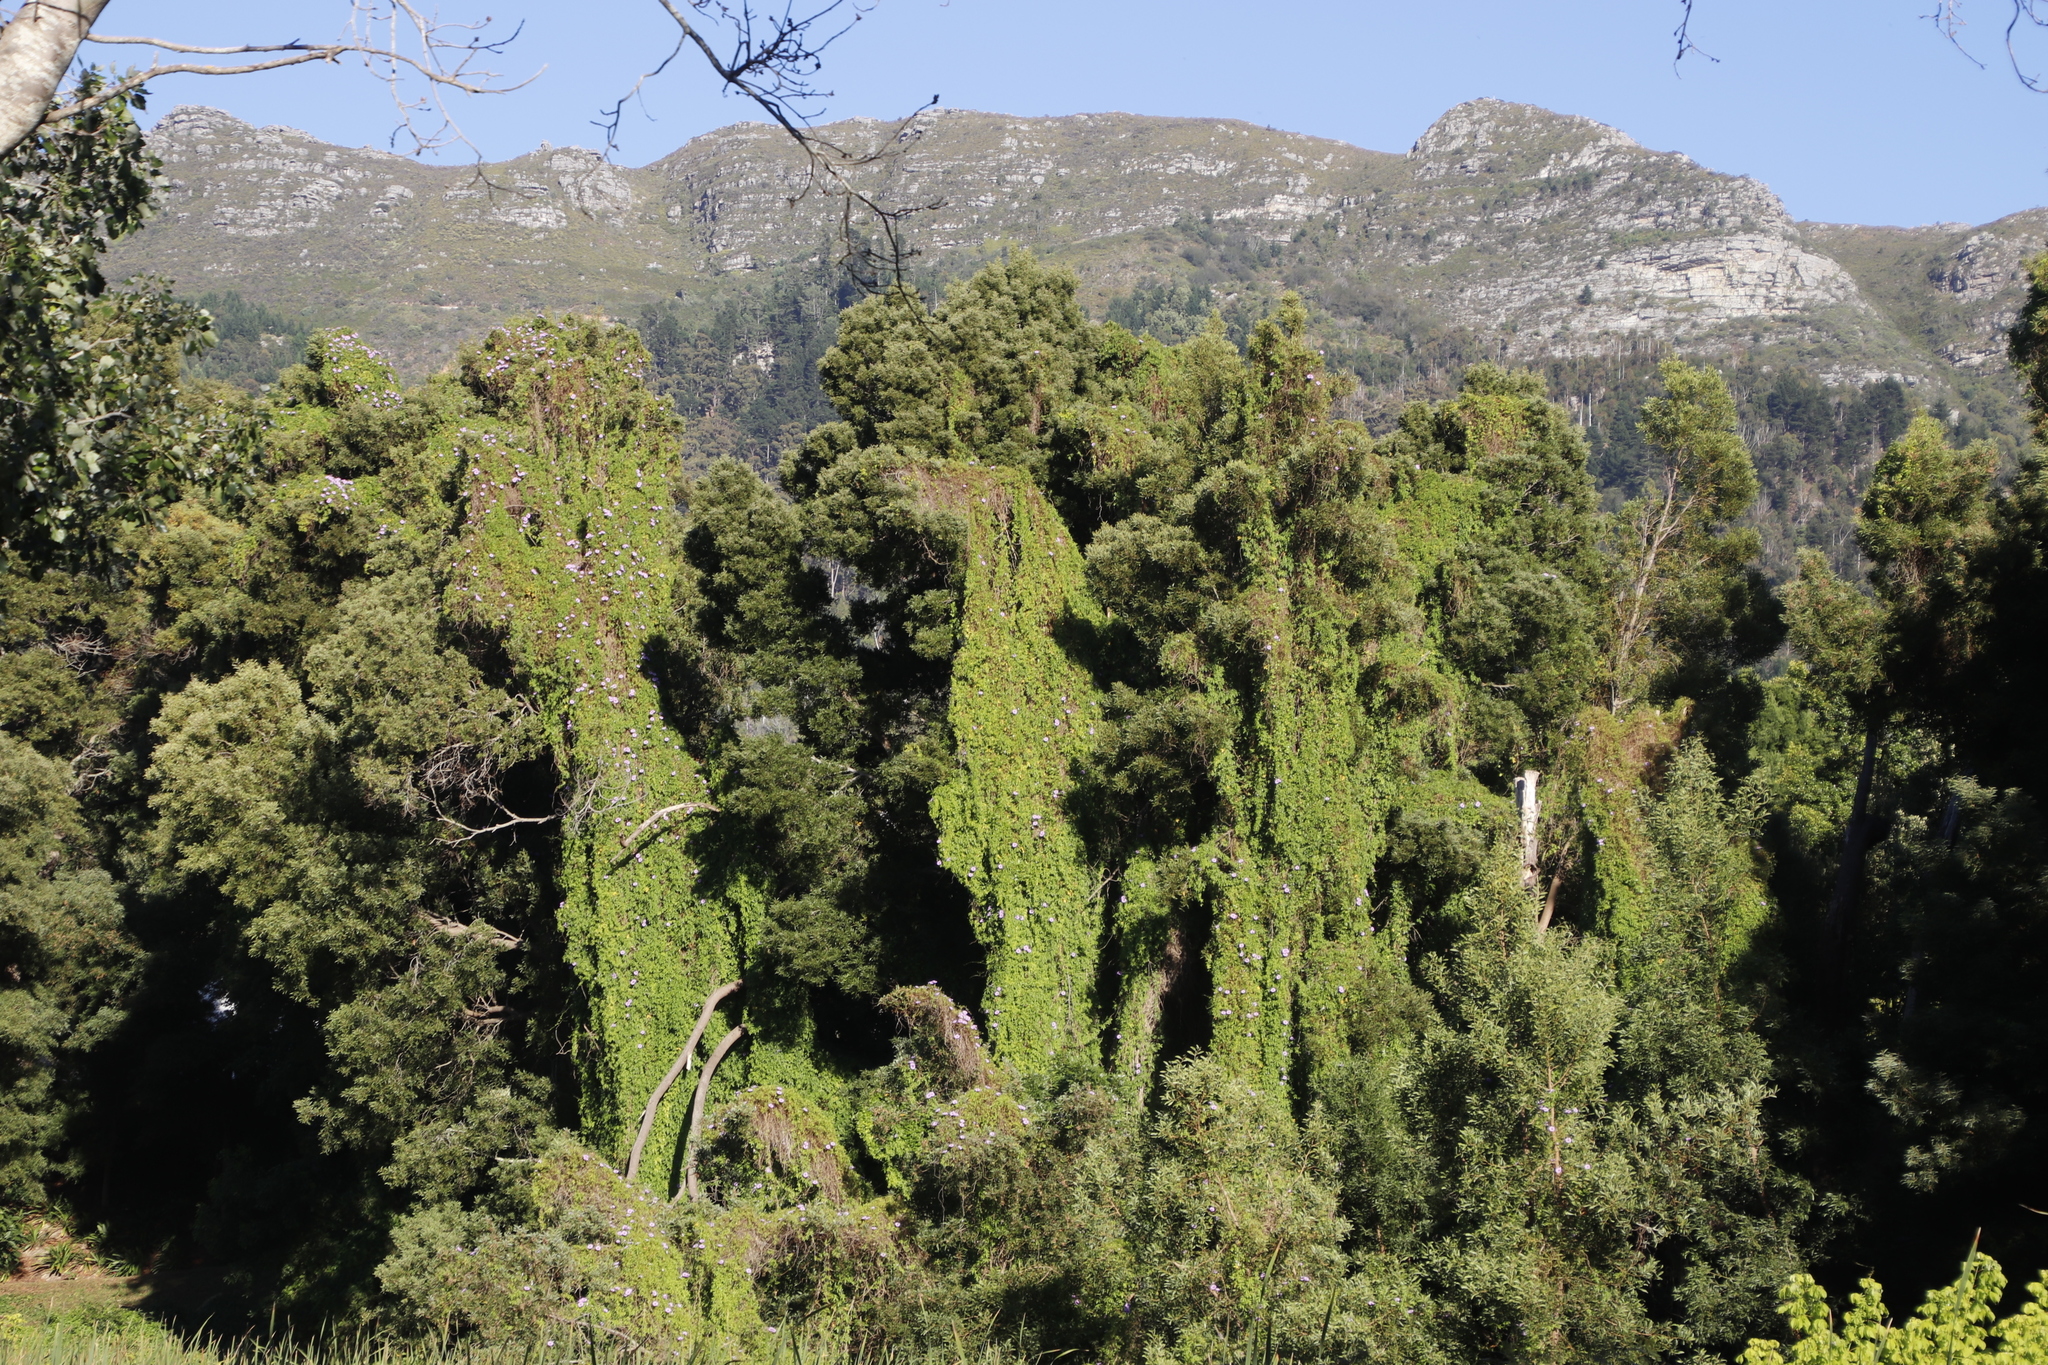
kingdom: Plantae
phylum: Tracheophyta
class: Magnoliopsida
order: Solanales
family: Convolvulaceae
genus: Ipomoea
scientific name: Ipomoea cairica
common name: Mile a minute vine
